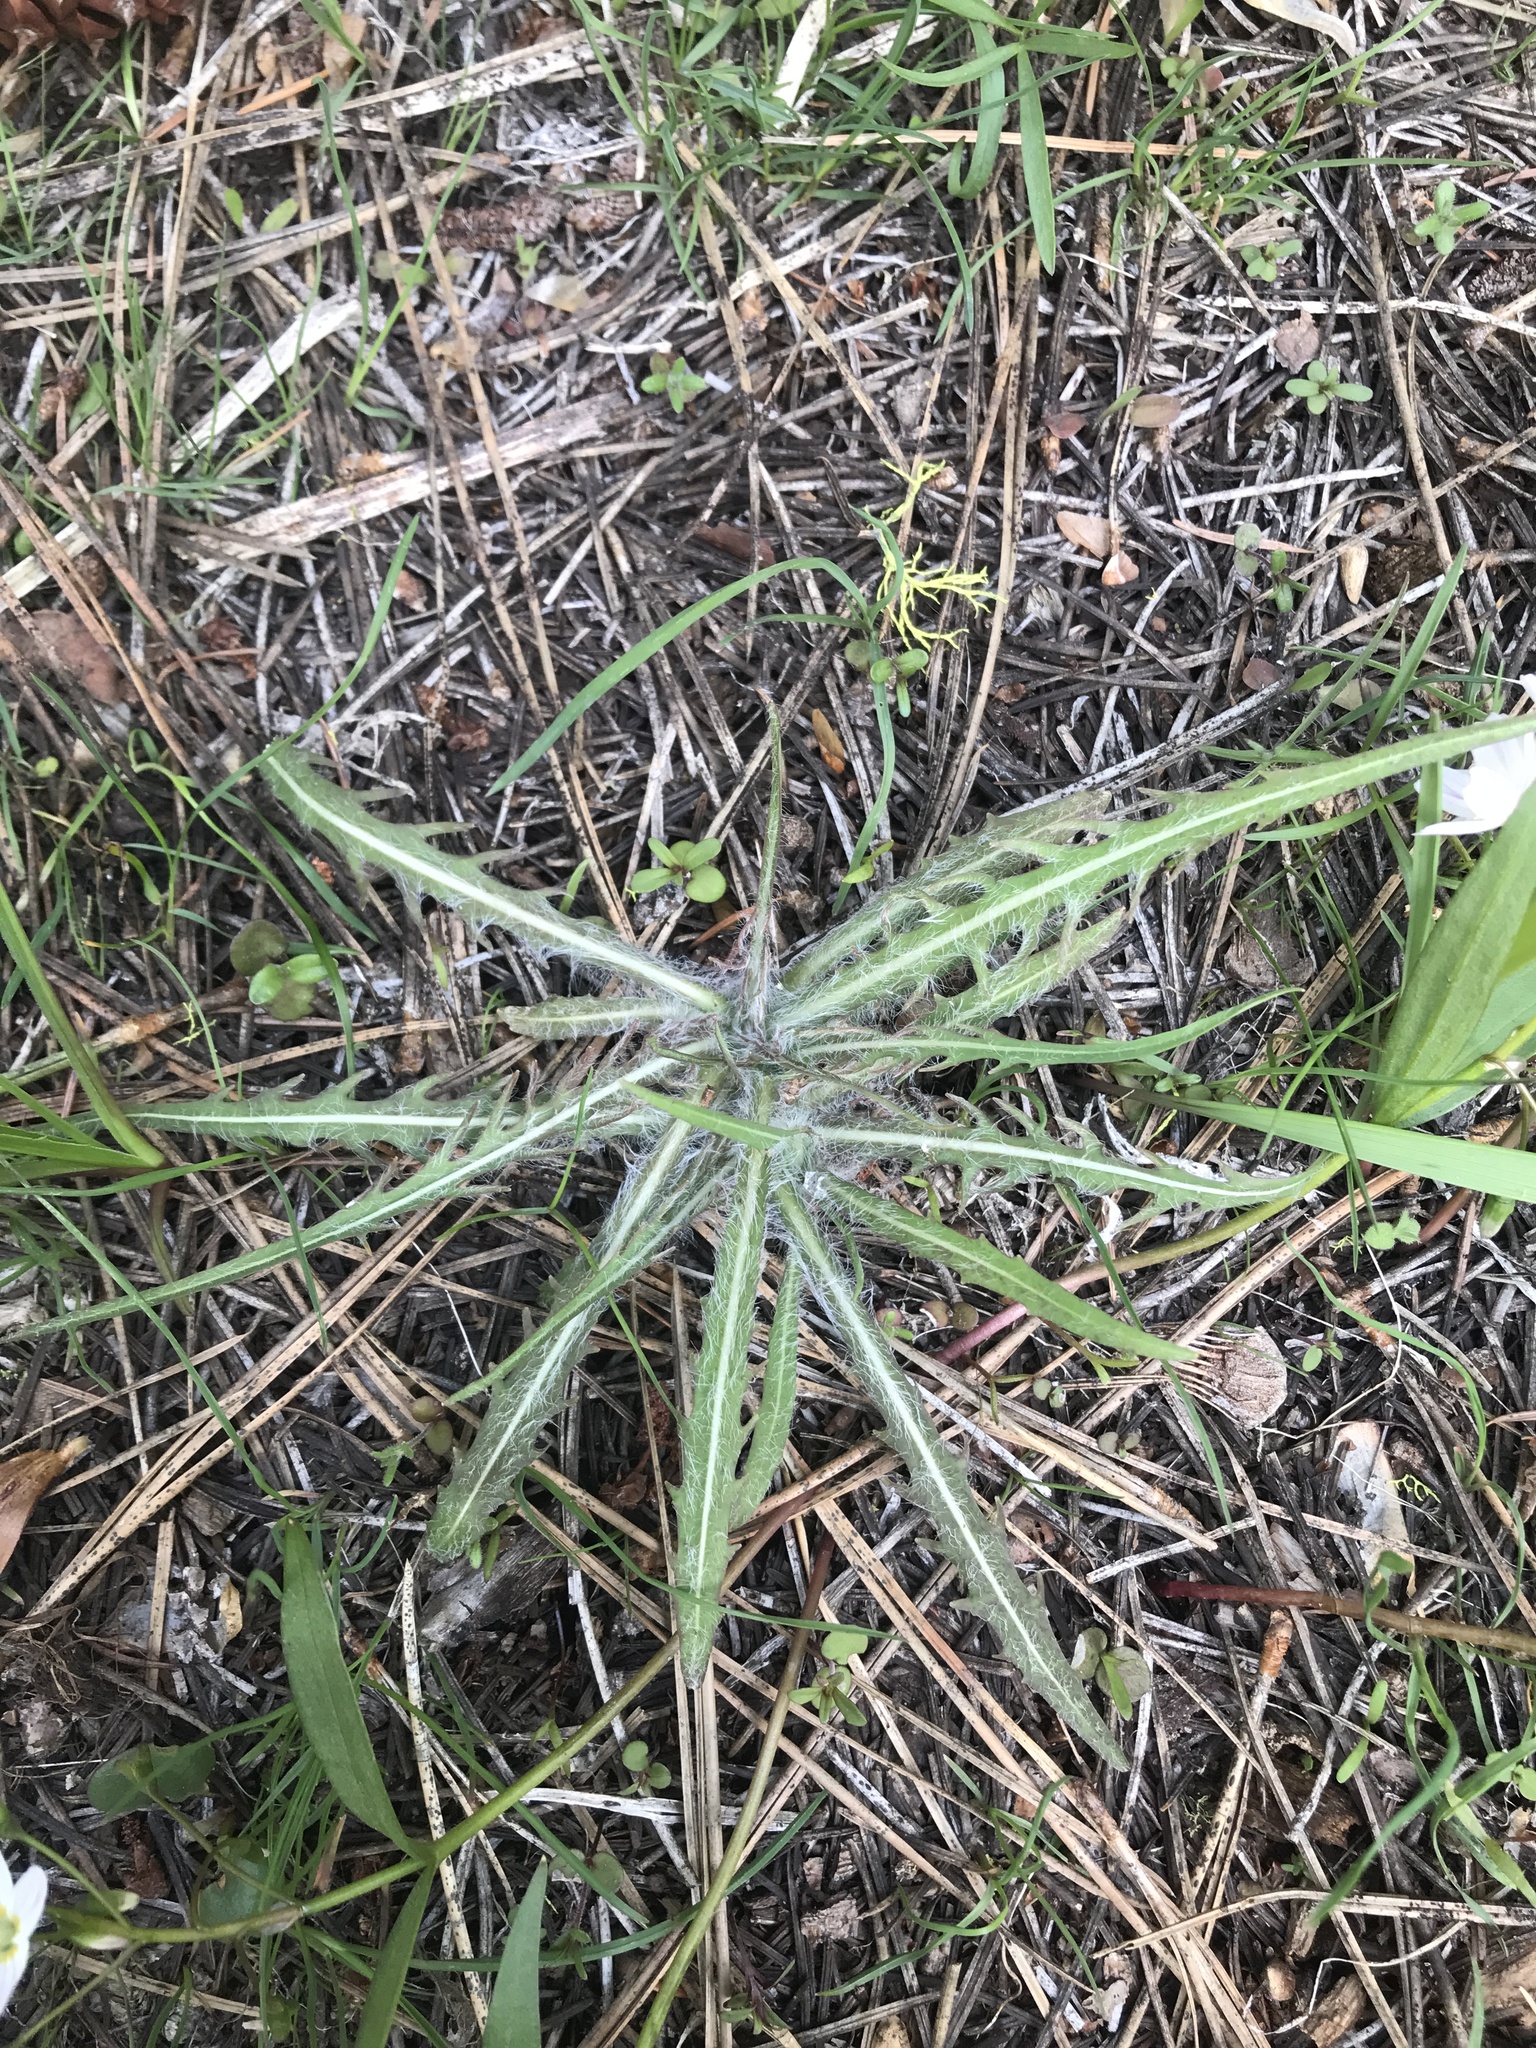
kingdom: Plantae
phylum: Tracheophyta
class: Magnoliopsida
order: Asterales
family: Asteraceae
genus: Agoseris
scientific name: Agoseris retrorsa
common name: Spearleaf agoseris
